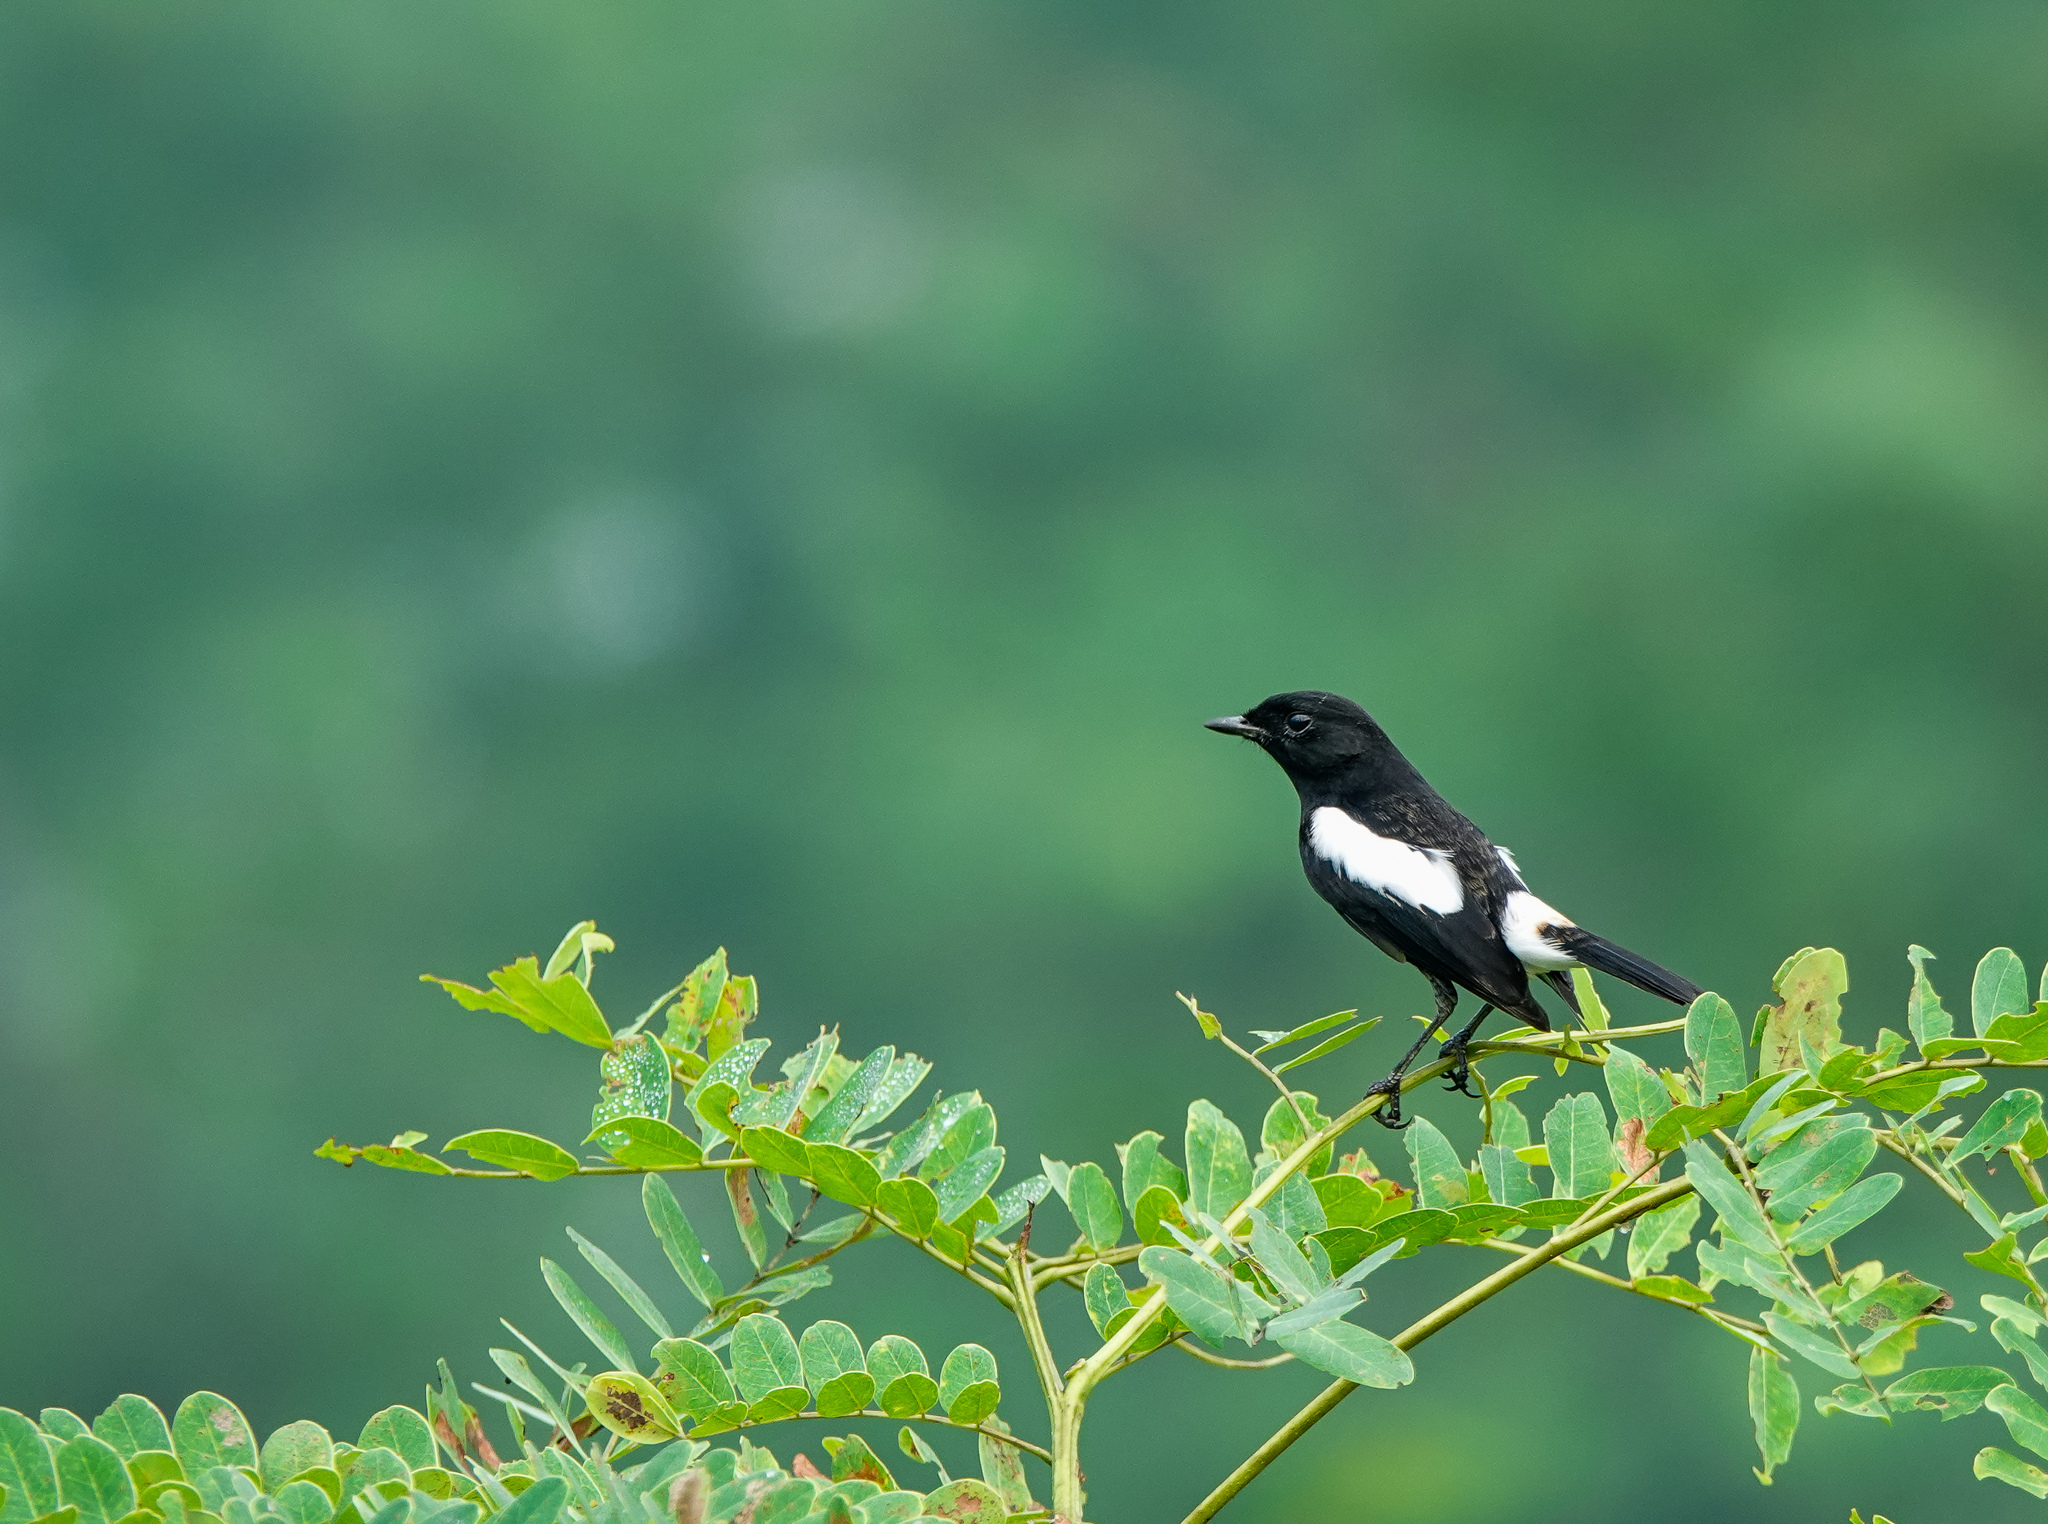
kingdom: Animalia
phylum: Chordata
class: Aves
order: Passeriformes
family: Muscicapidae
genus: Saxicola
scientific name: Saxicola caprata
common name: Pied bush chat
